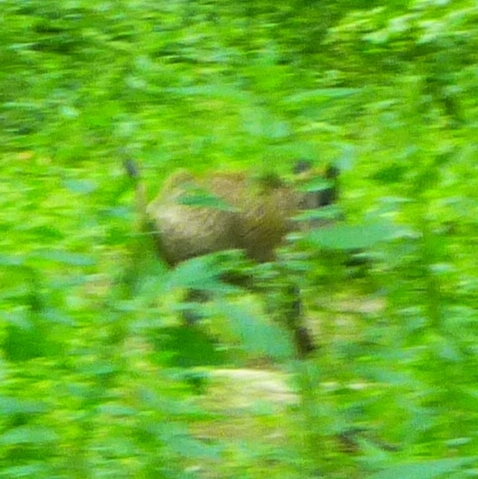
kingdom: Animalia
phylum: Chordata
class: Mammalia
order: Artiodactyla
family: Suidae
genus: Sus
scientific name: Sus scrofa
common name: Wild boar
